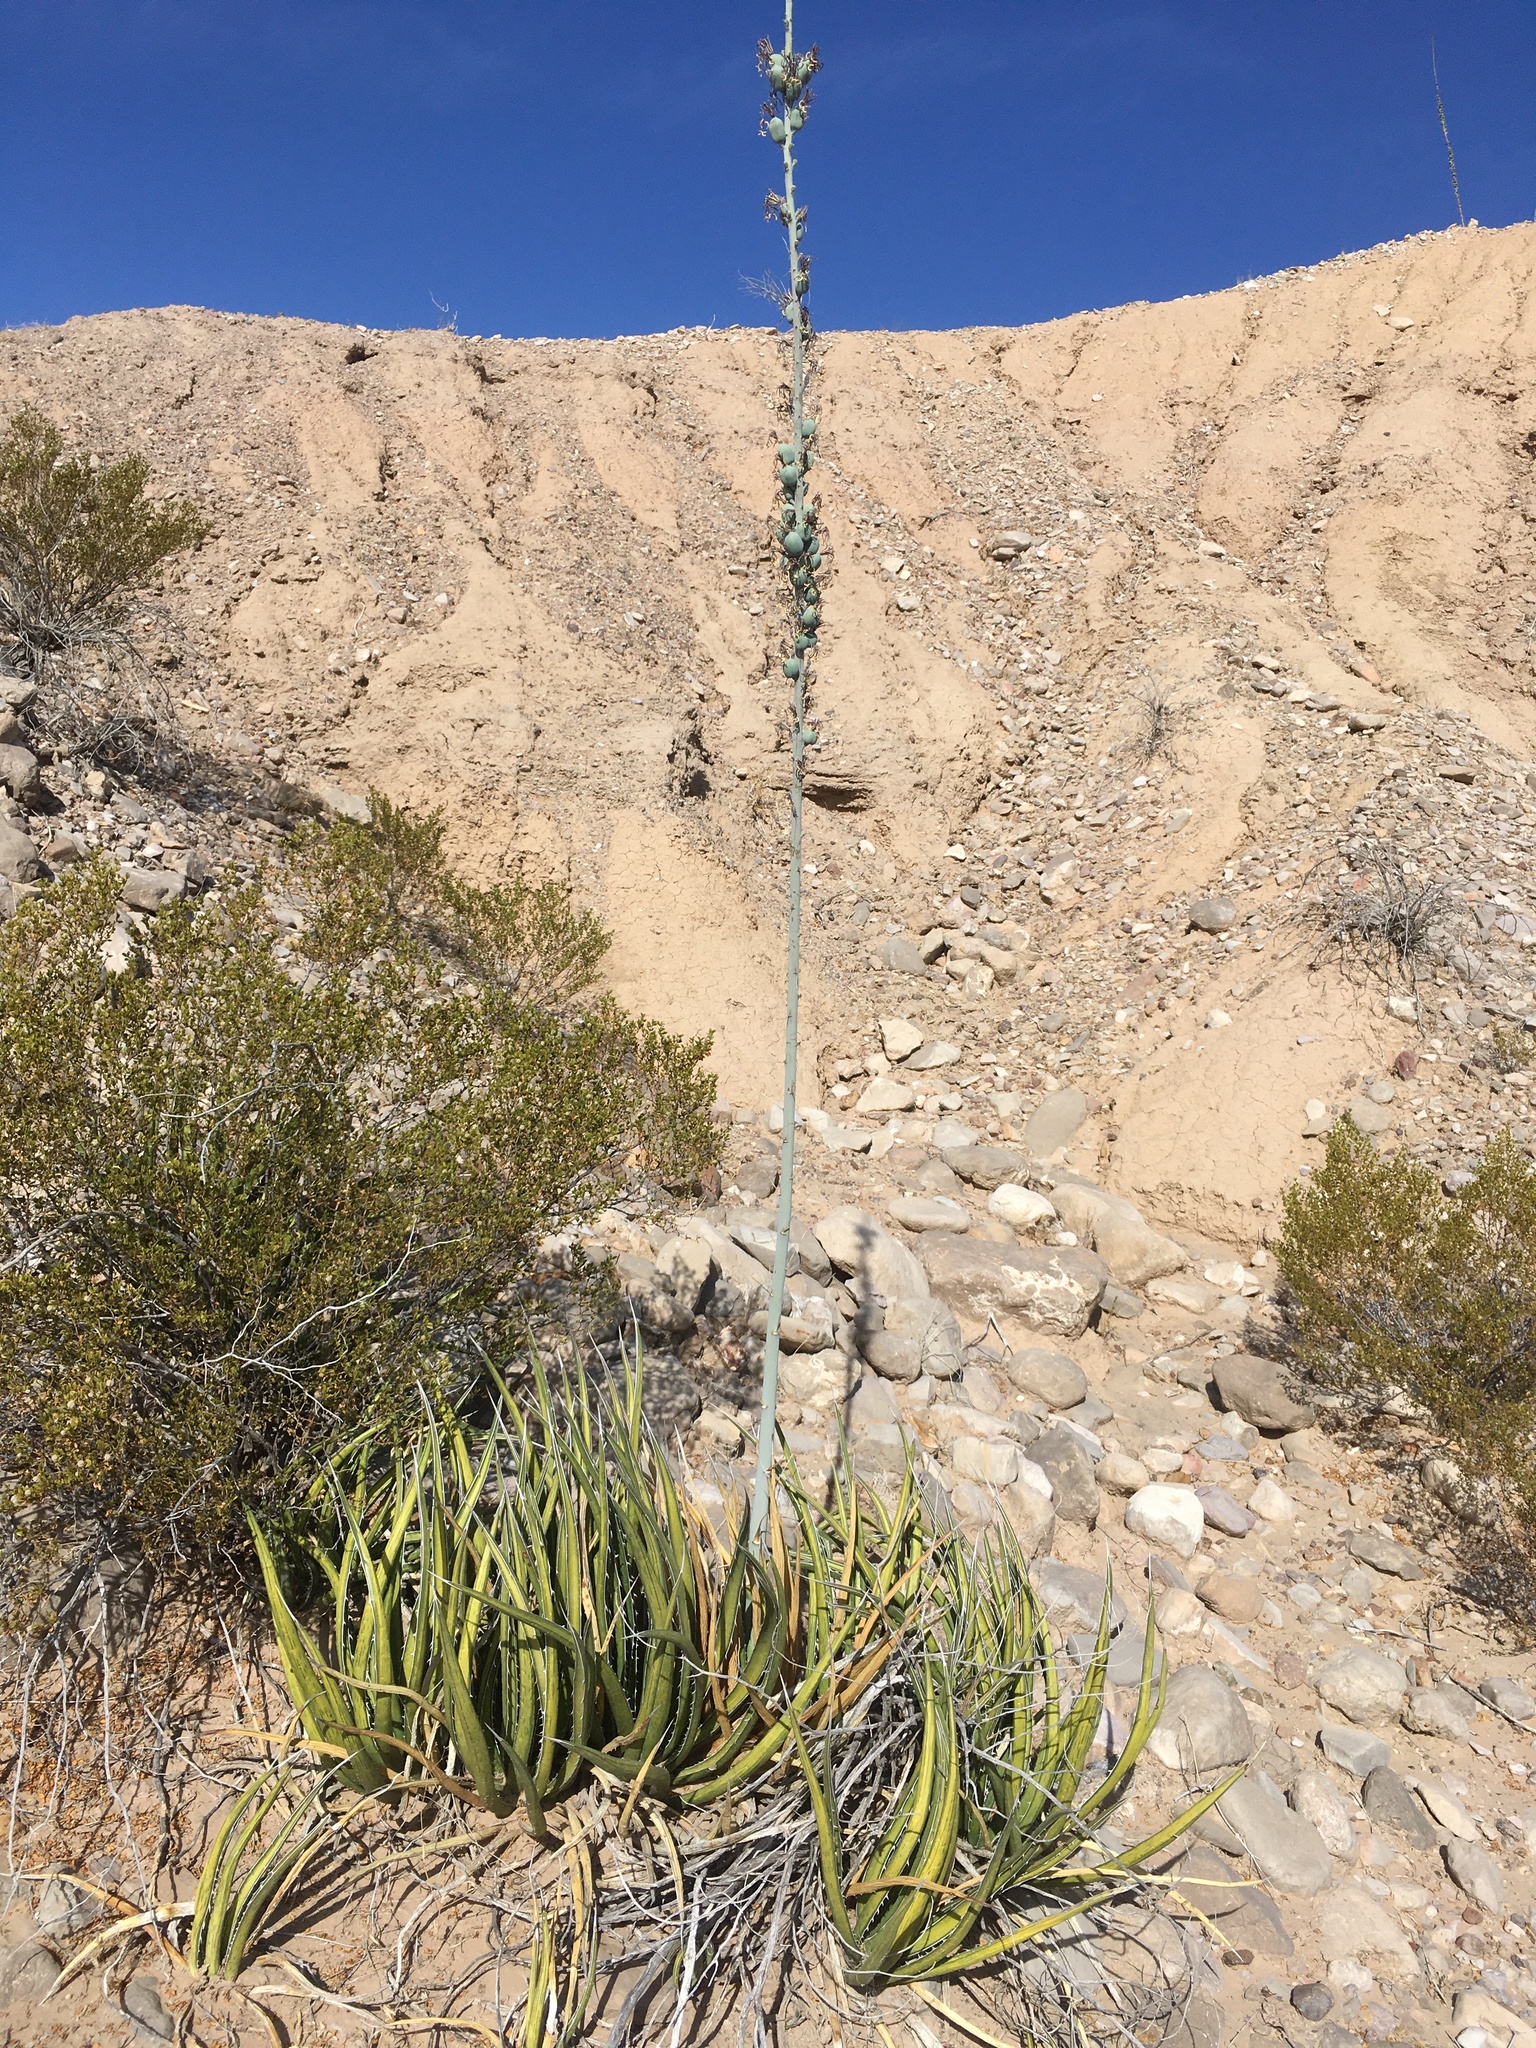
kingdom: Plantae
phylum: Tracheophyta
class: Liliopsida
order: Asparagales
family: Asparagaceae
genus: Agave
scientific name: Agave lechuguilla
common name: Lecheguilla agave
